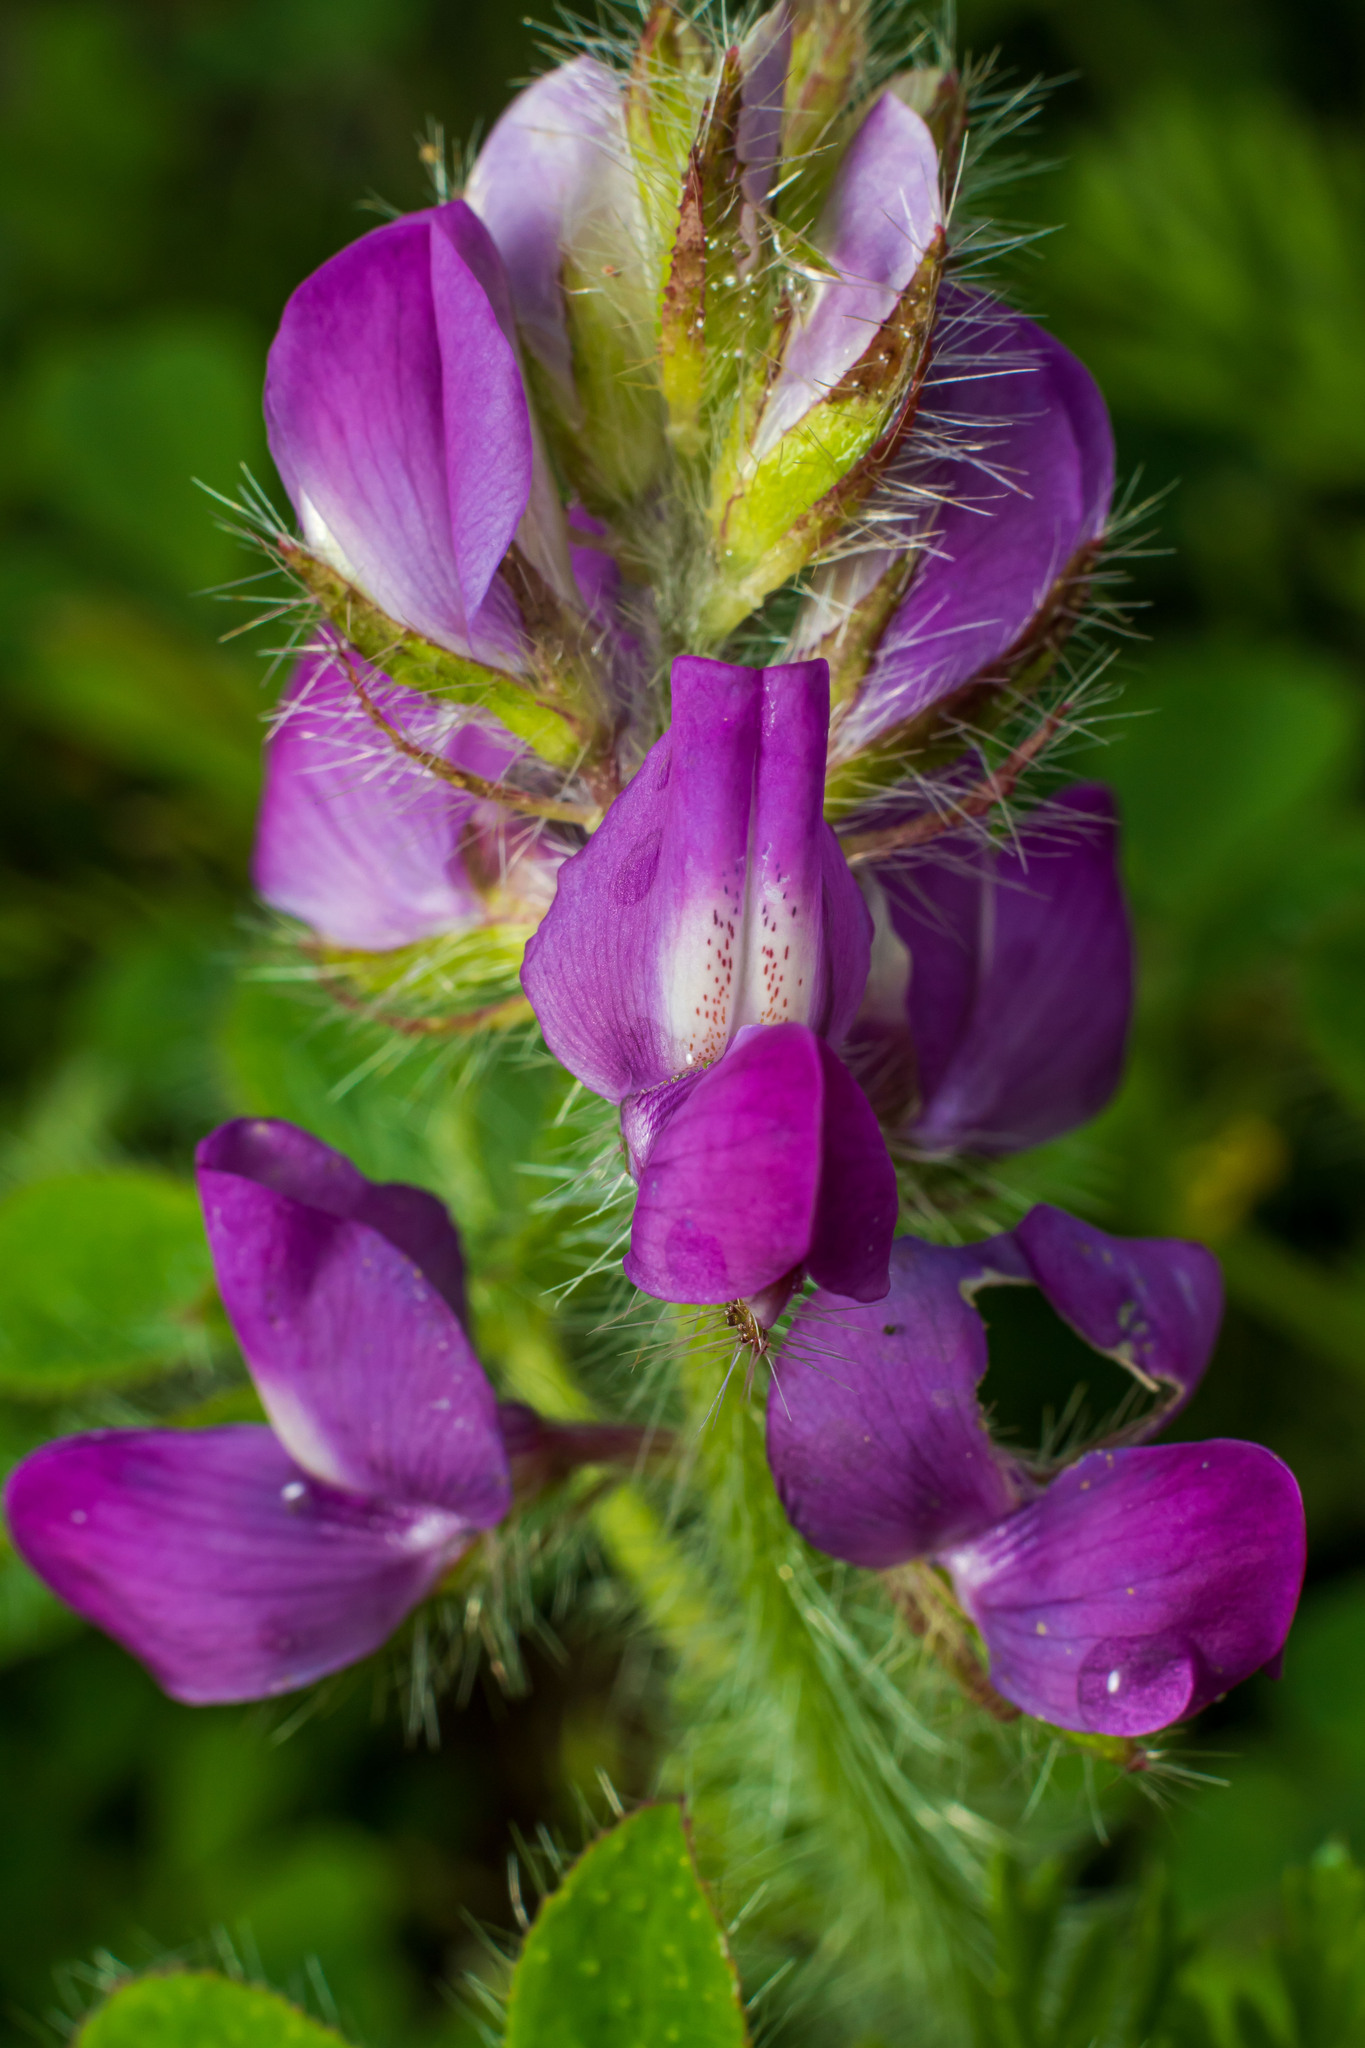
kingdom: Plantae
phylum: Tracheophyta
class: Magnoliopsida
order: Fabales
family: Fabaceae
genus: Lupinus
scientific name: Lupinus hirsutissimus
